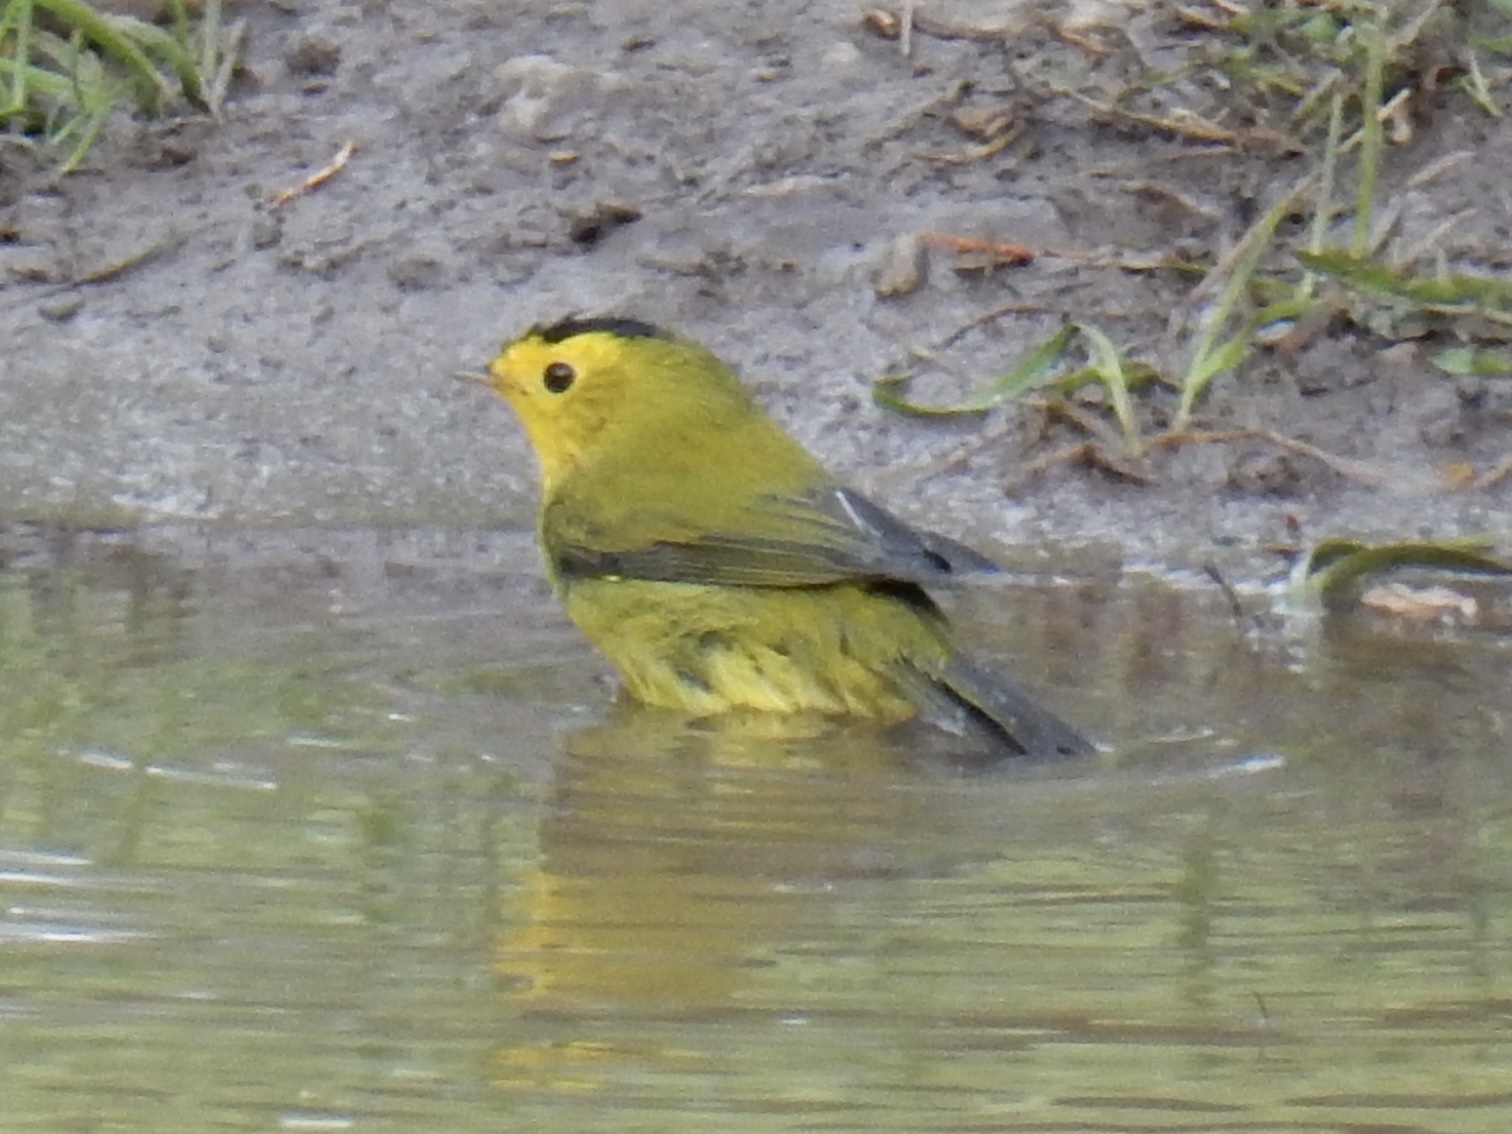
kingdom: Animalia
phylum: Chordata
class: Aves
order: Passeriformes
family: Parulidae
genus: Cardellina
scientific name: Cardellina pusilla
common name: Wilson's warbler
